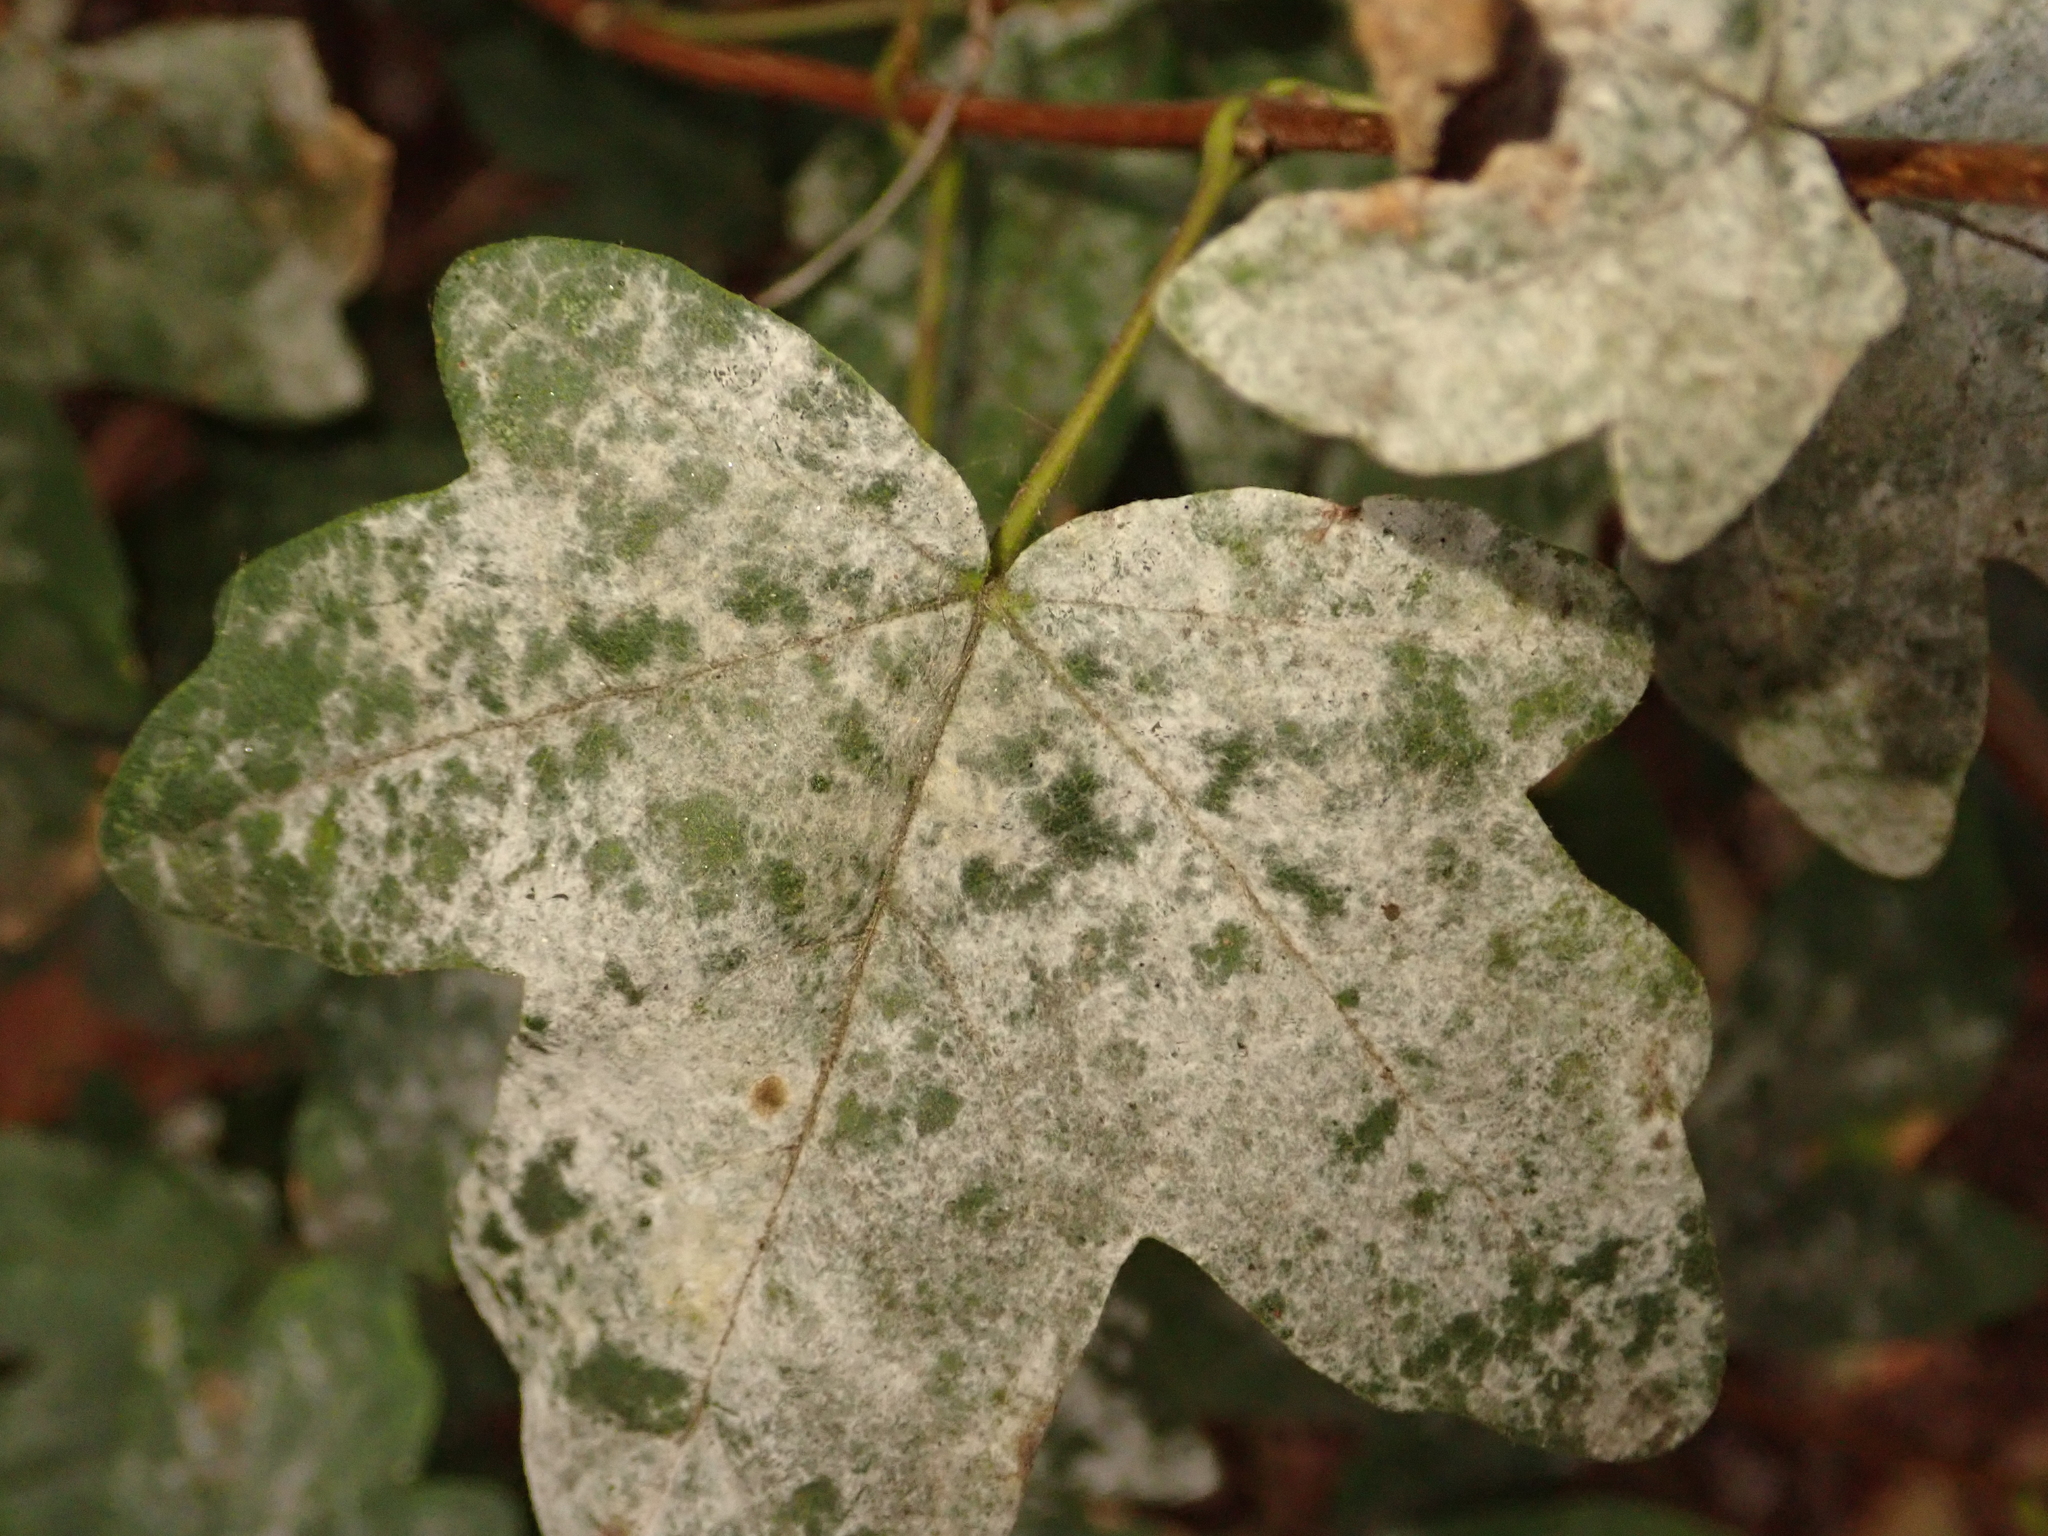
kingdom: Fungi
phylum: Ascomycota
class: Leotiomycetes
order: Helotiales
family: Erysiphaceae
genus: Sawadaea
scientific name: Sawadaea bicornis
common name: Maple mildew
